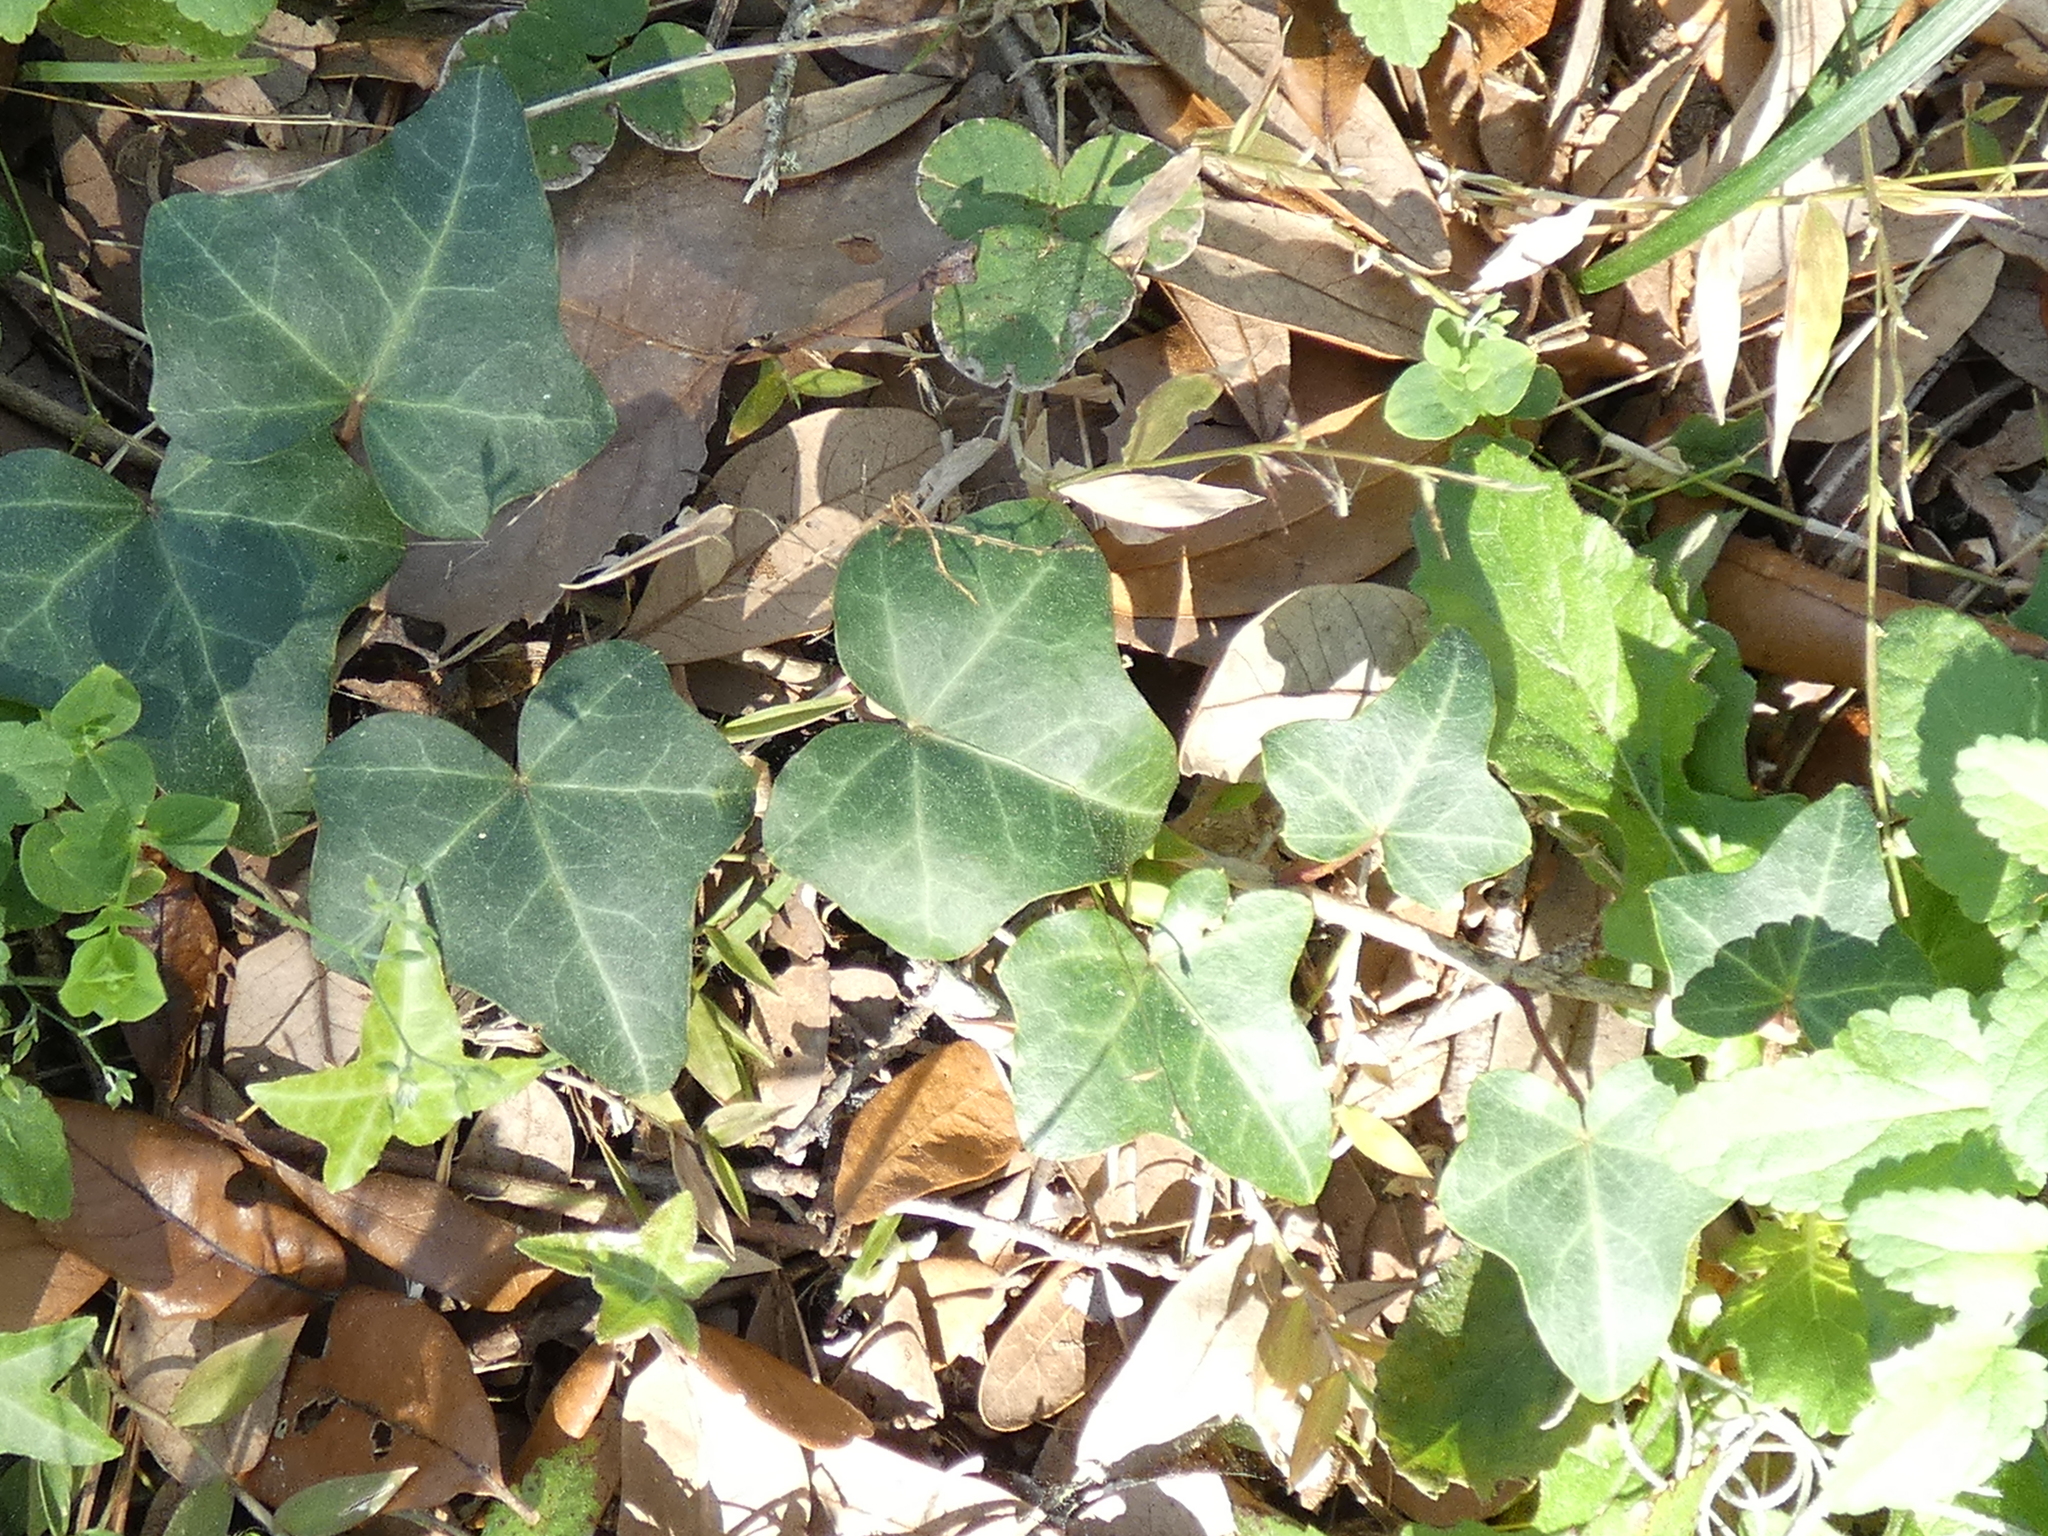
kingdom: Plantae
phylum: Tracheophyta
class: Magnoliopsida
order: Apiales
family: Araliaceae
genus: Hedera
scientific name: Hedera helix
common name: Ivy
